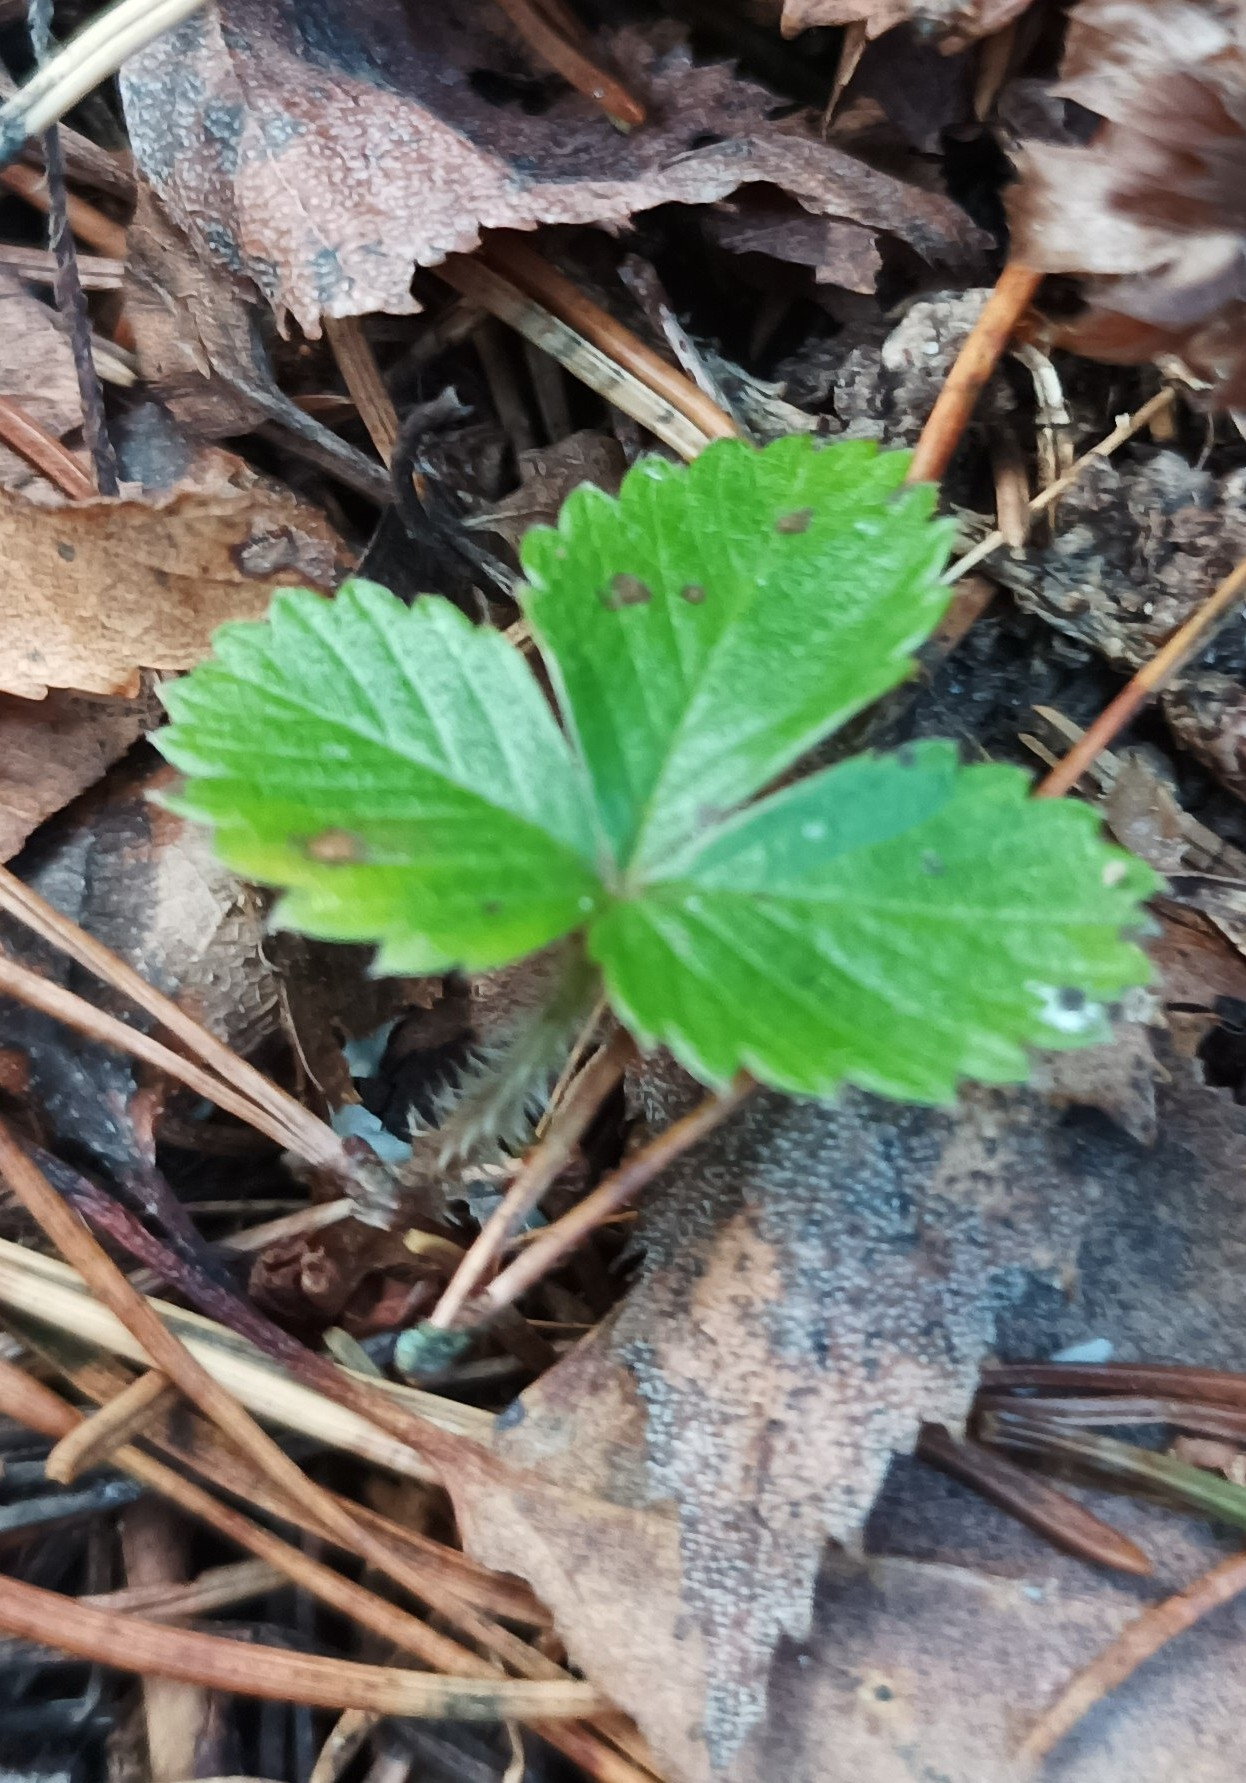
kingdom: Plantae
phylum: Tracheophyta
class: Magnoliopsida
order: Rosales
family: Rosaceae
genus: Fragaria
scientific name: Fragaria vesca
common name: Wild strawberry
